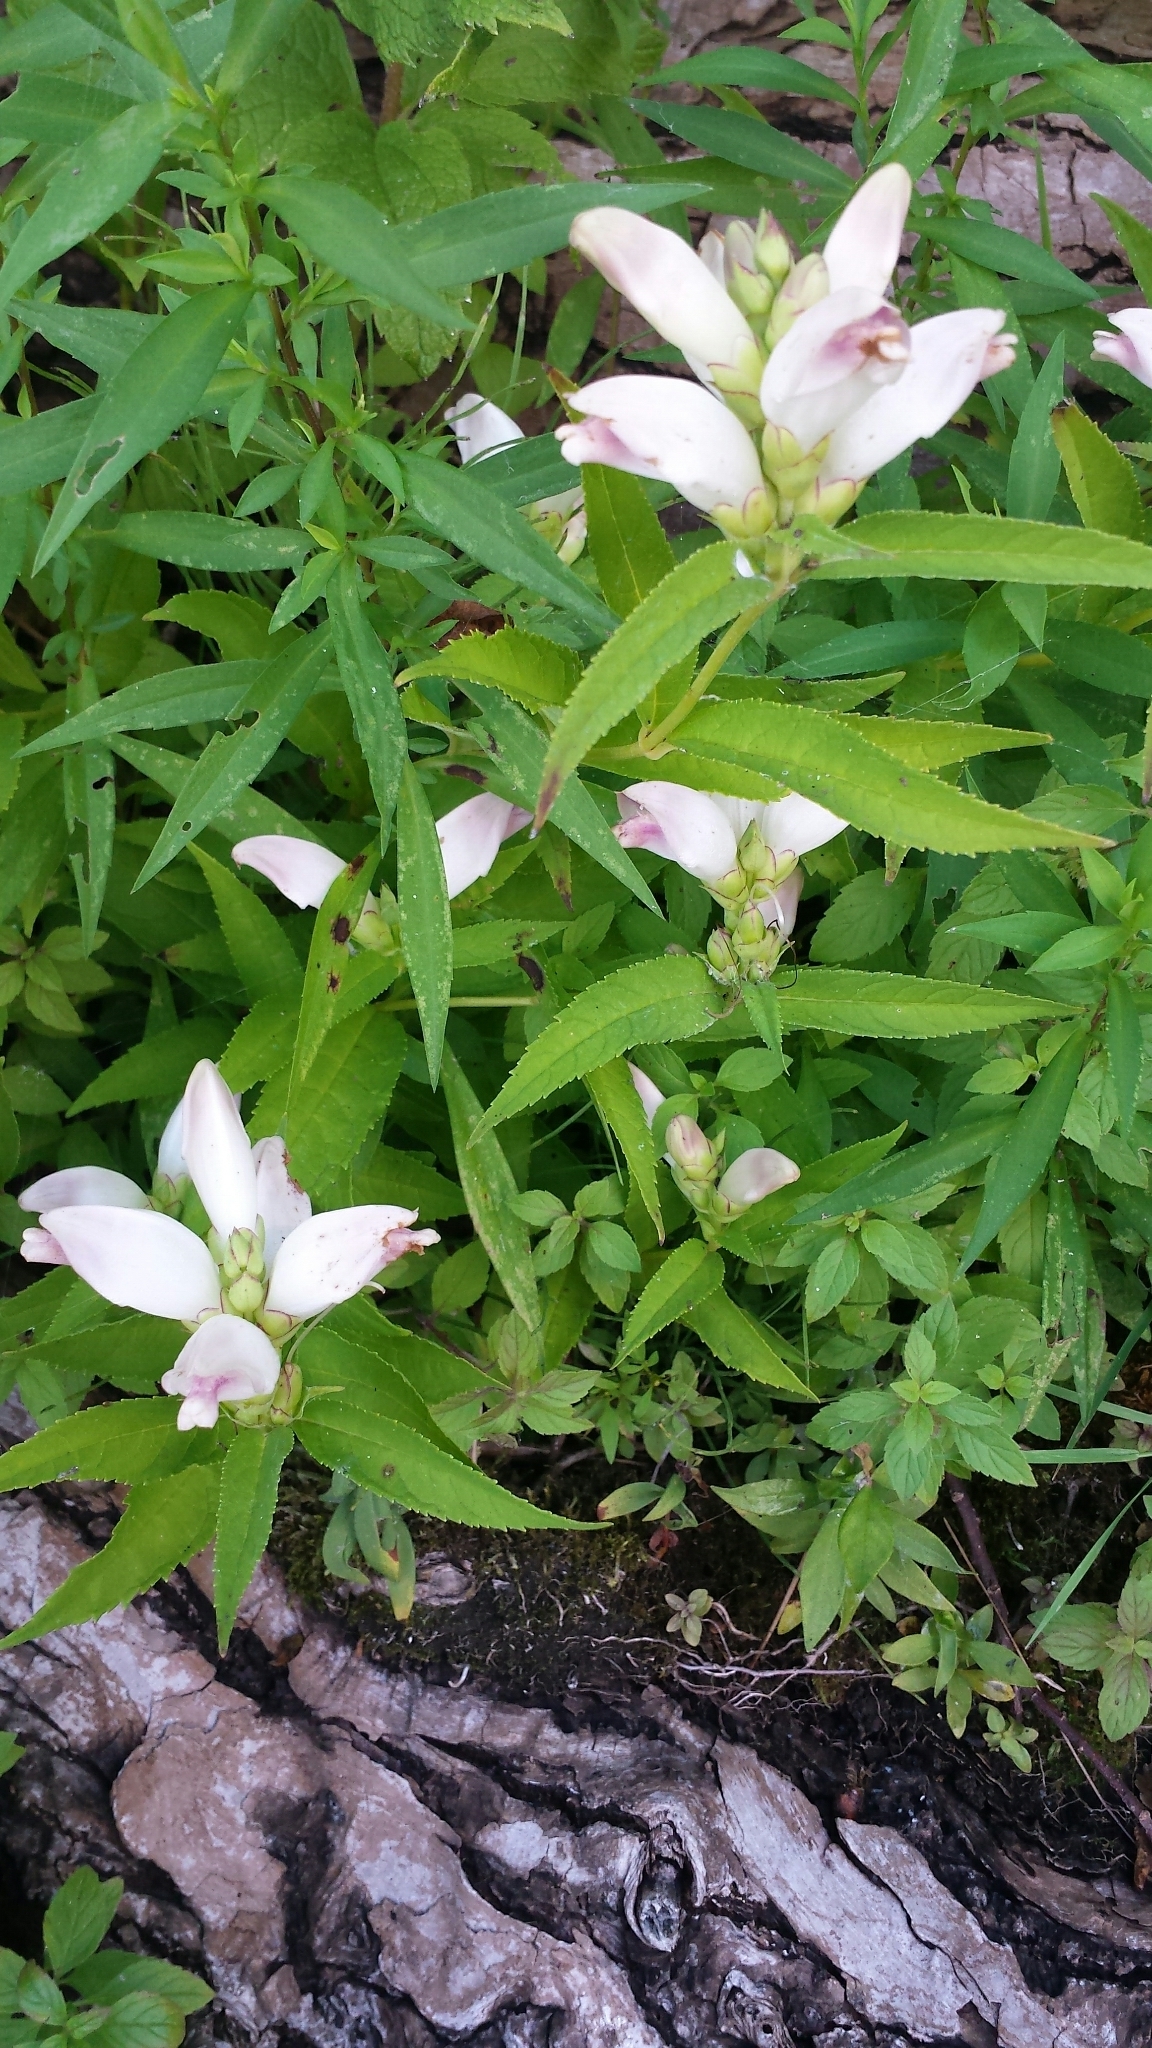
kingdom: Plantae
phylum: Tracheophyta
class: Magnoliopsida
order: Lamiales
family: Plantaginaceae
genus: Chelone
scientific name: Chelone glabra
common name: Snakehead
